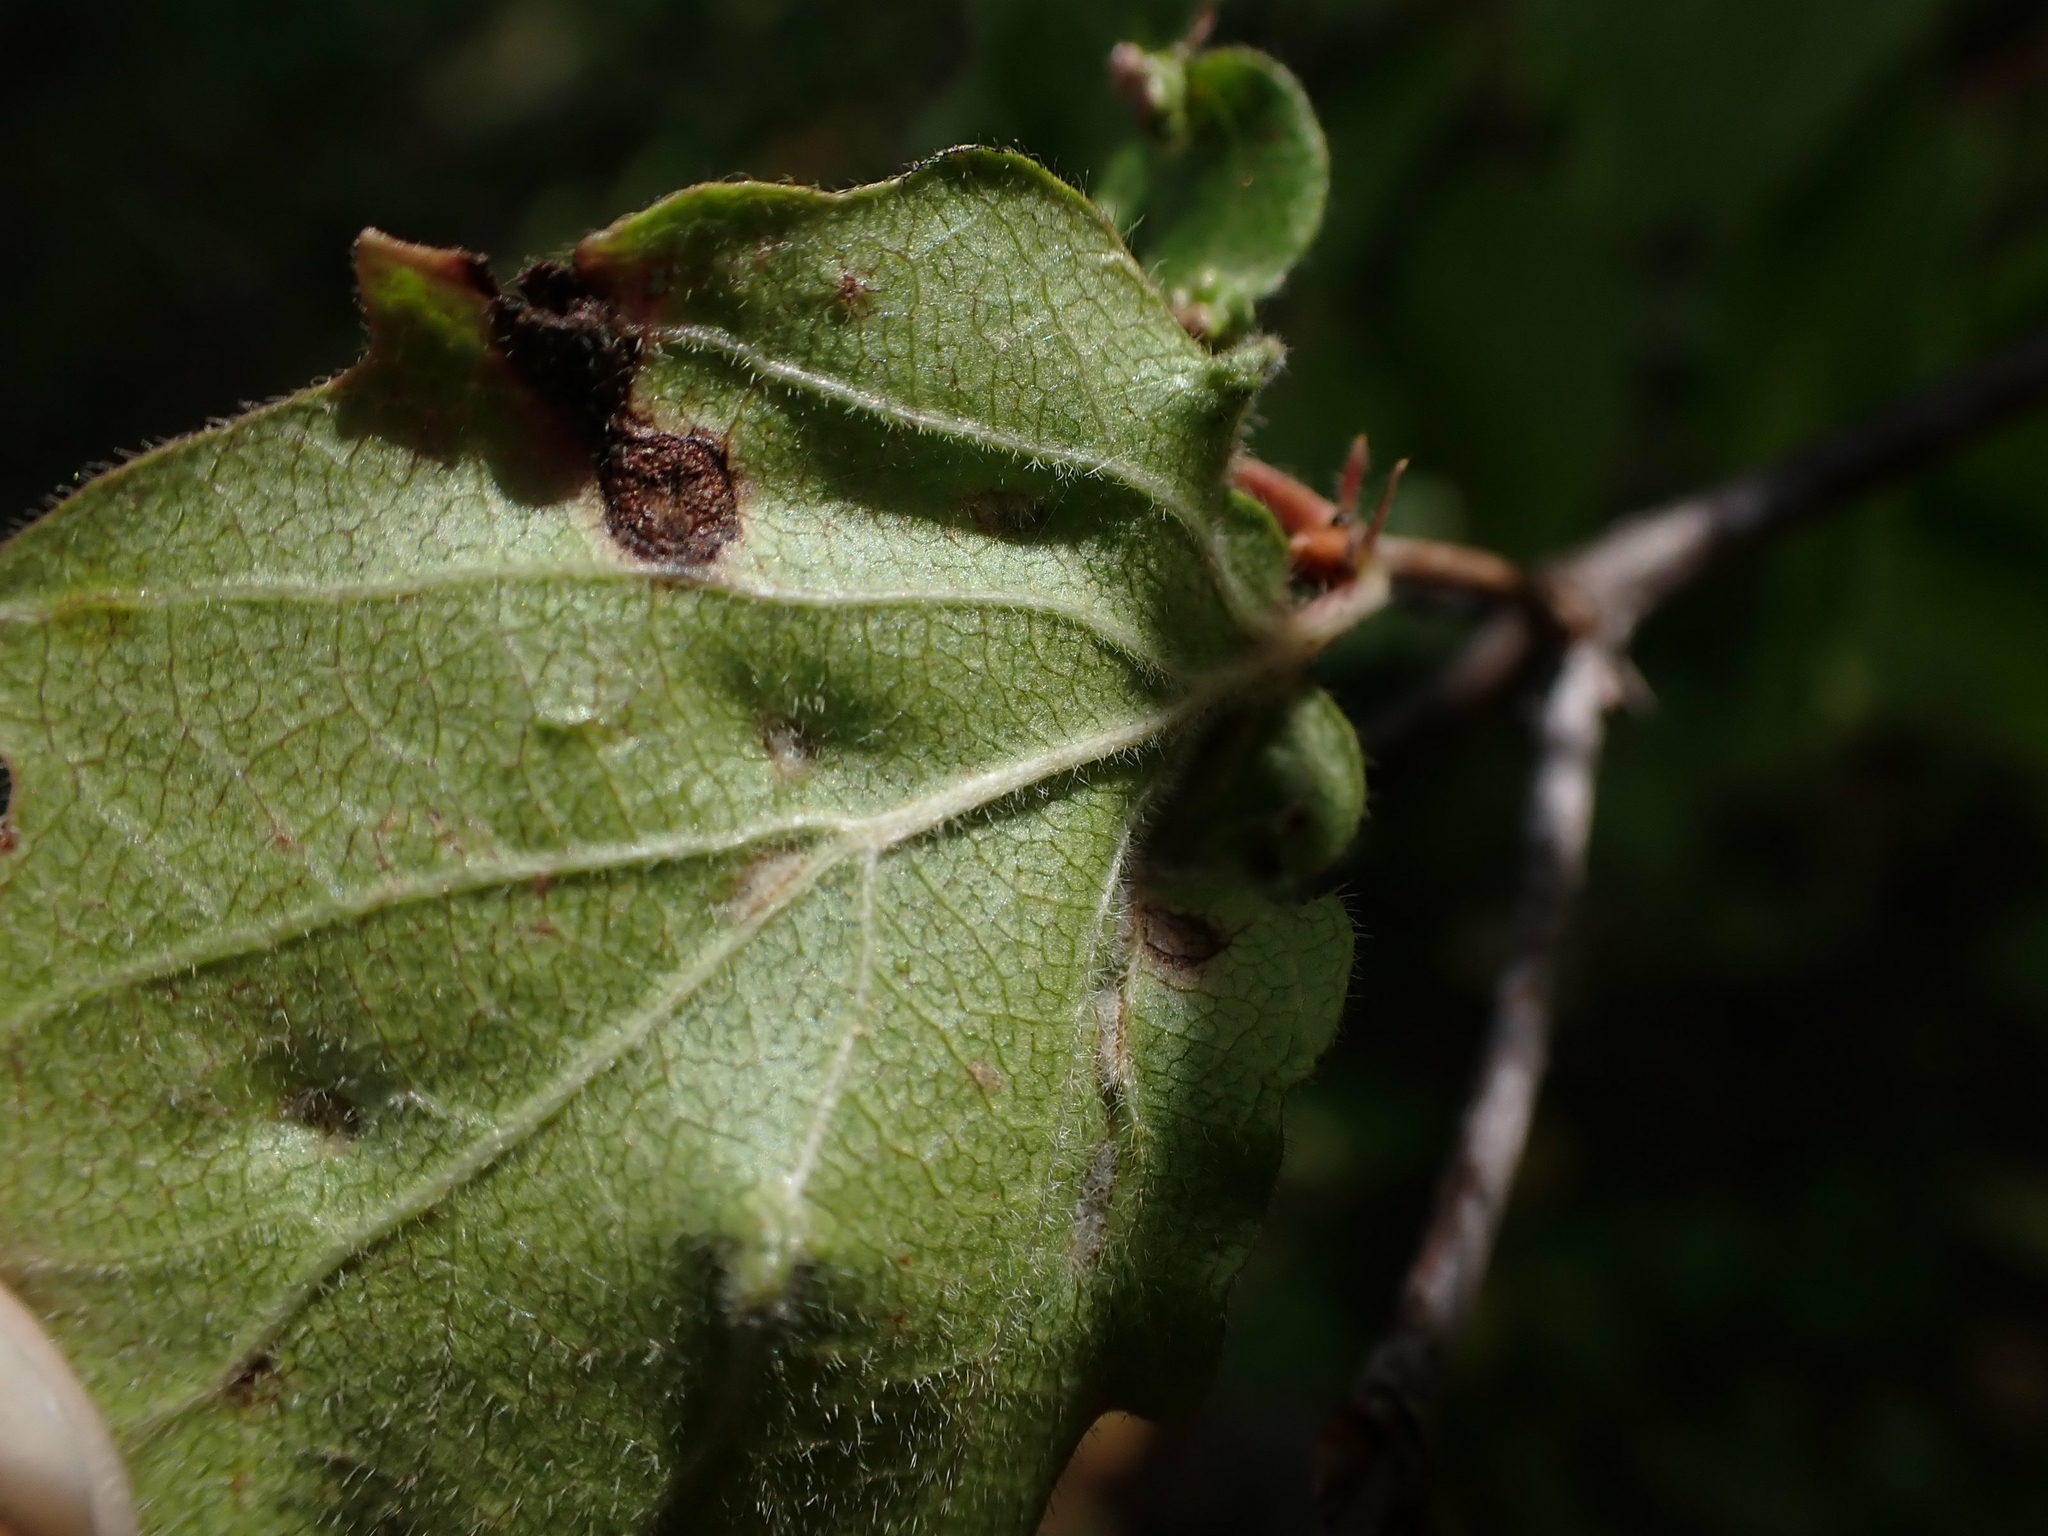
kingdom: Animalia
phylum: Arthropoda
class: Arachnida
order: Trombidiformes
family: Eriophyidae
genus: Eriophyes
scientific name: Eriophyes
